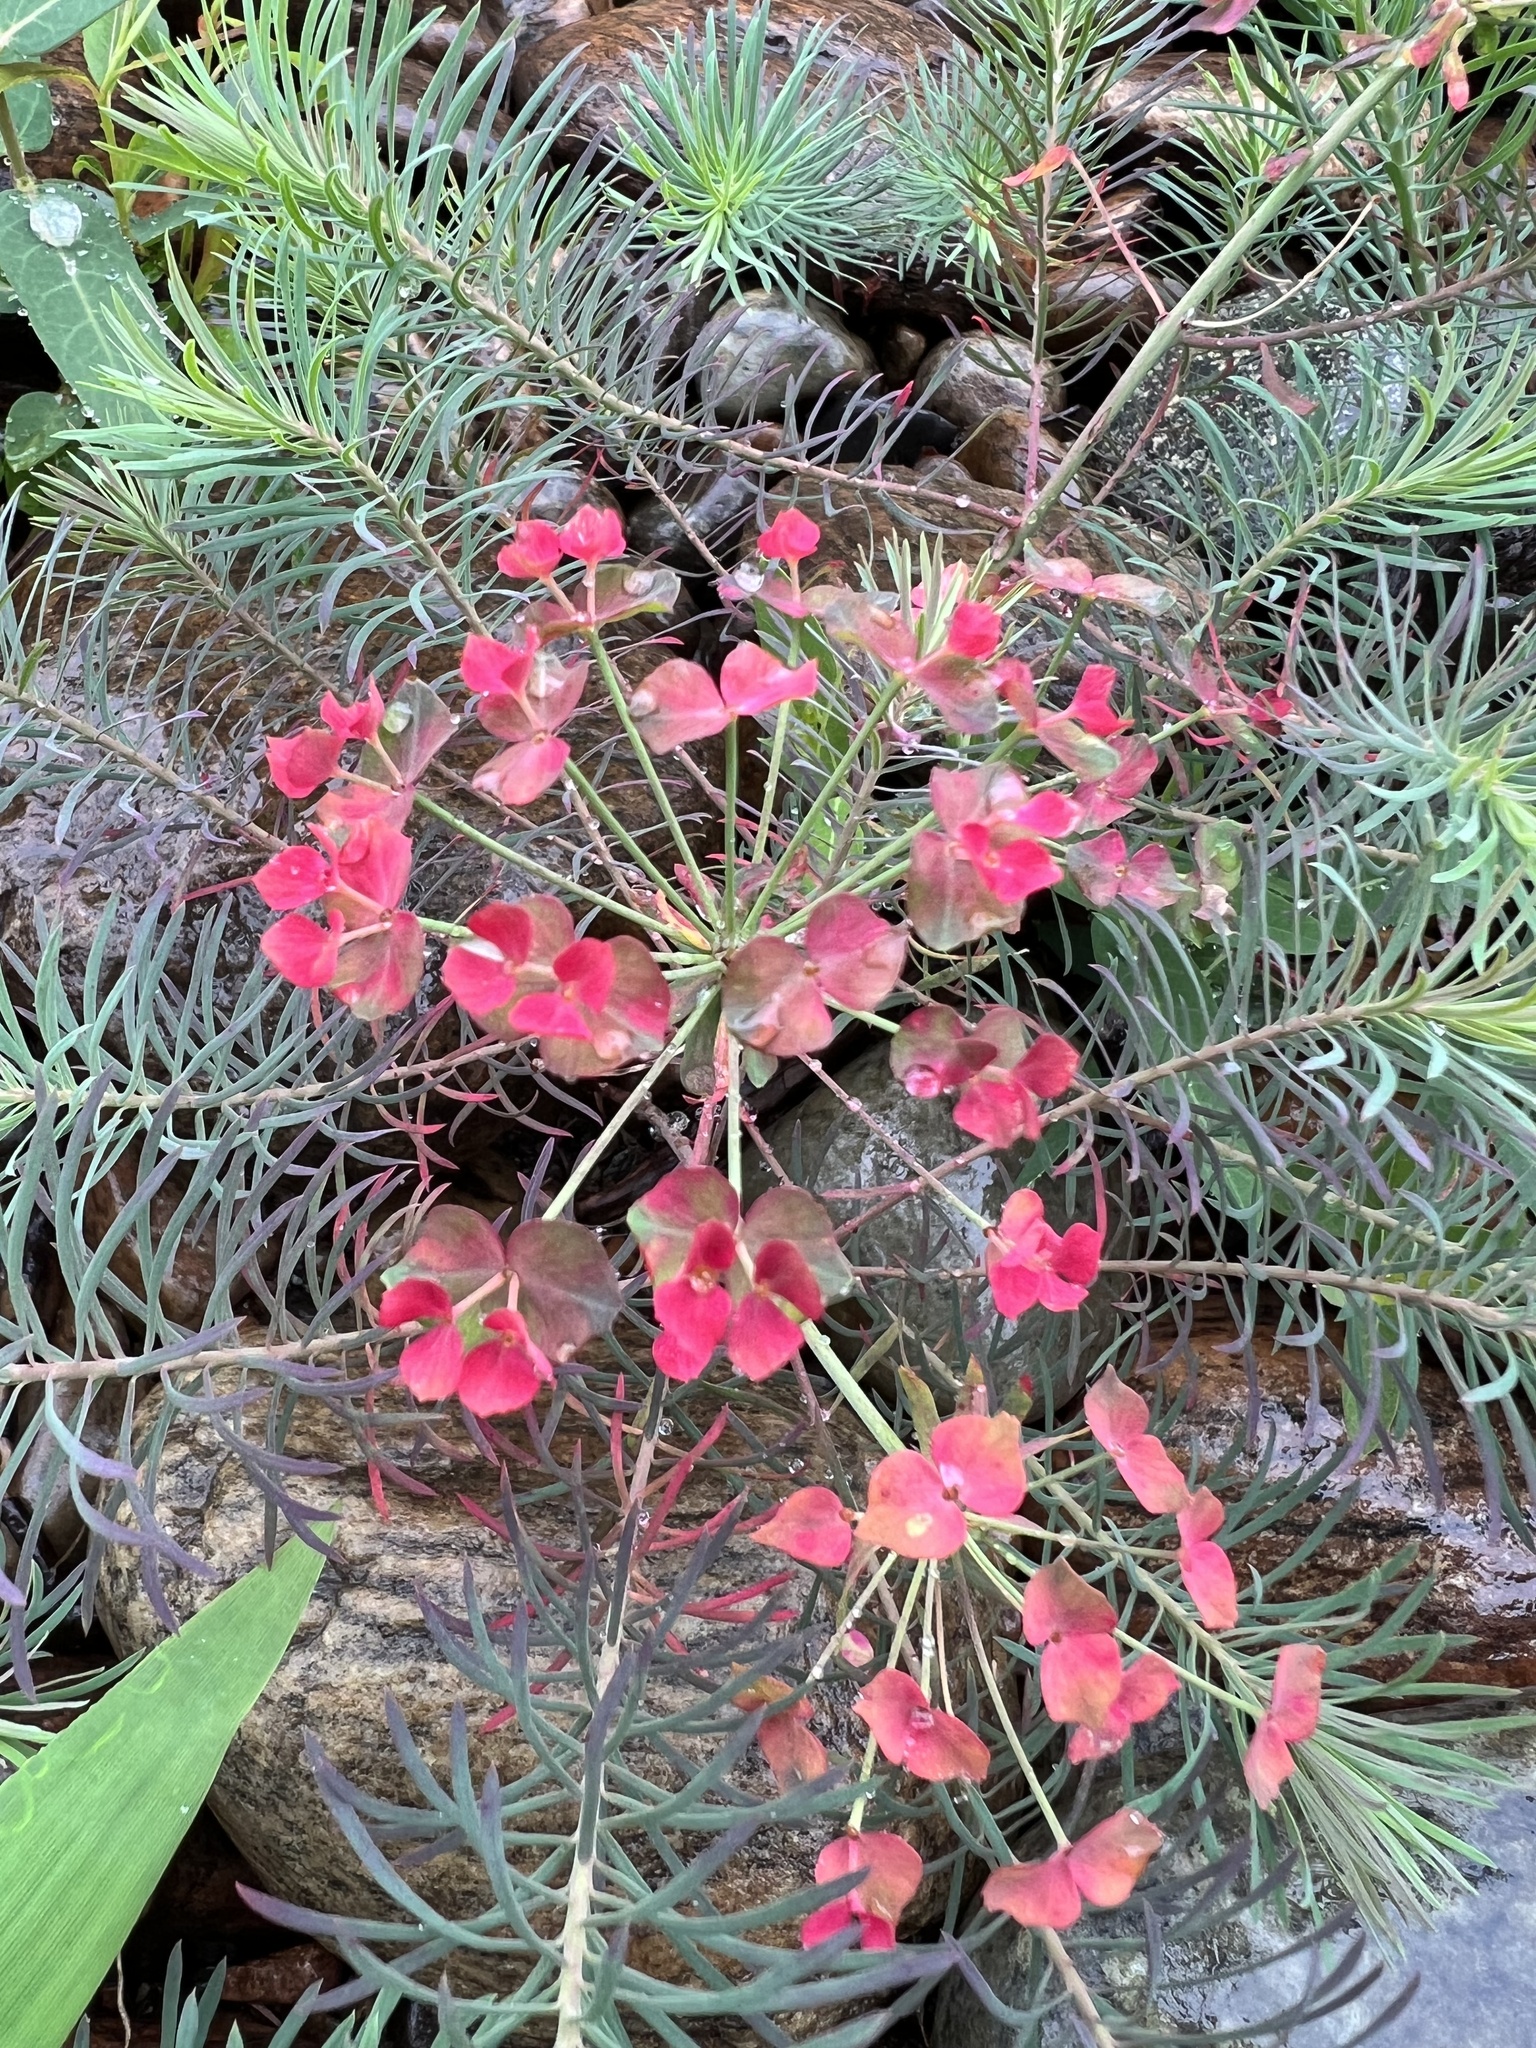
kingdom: Plantae
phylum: Tracheophyta
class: Magnoliopsida
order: Malpighiales
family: Euphorbiaceae
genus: Euphorbia
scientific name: Euphorbia cyparissias
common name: Cypress spurge
